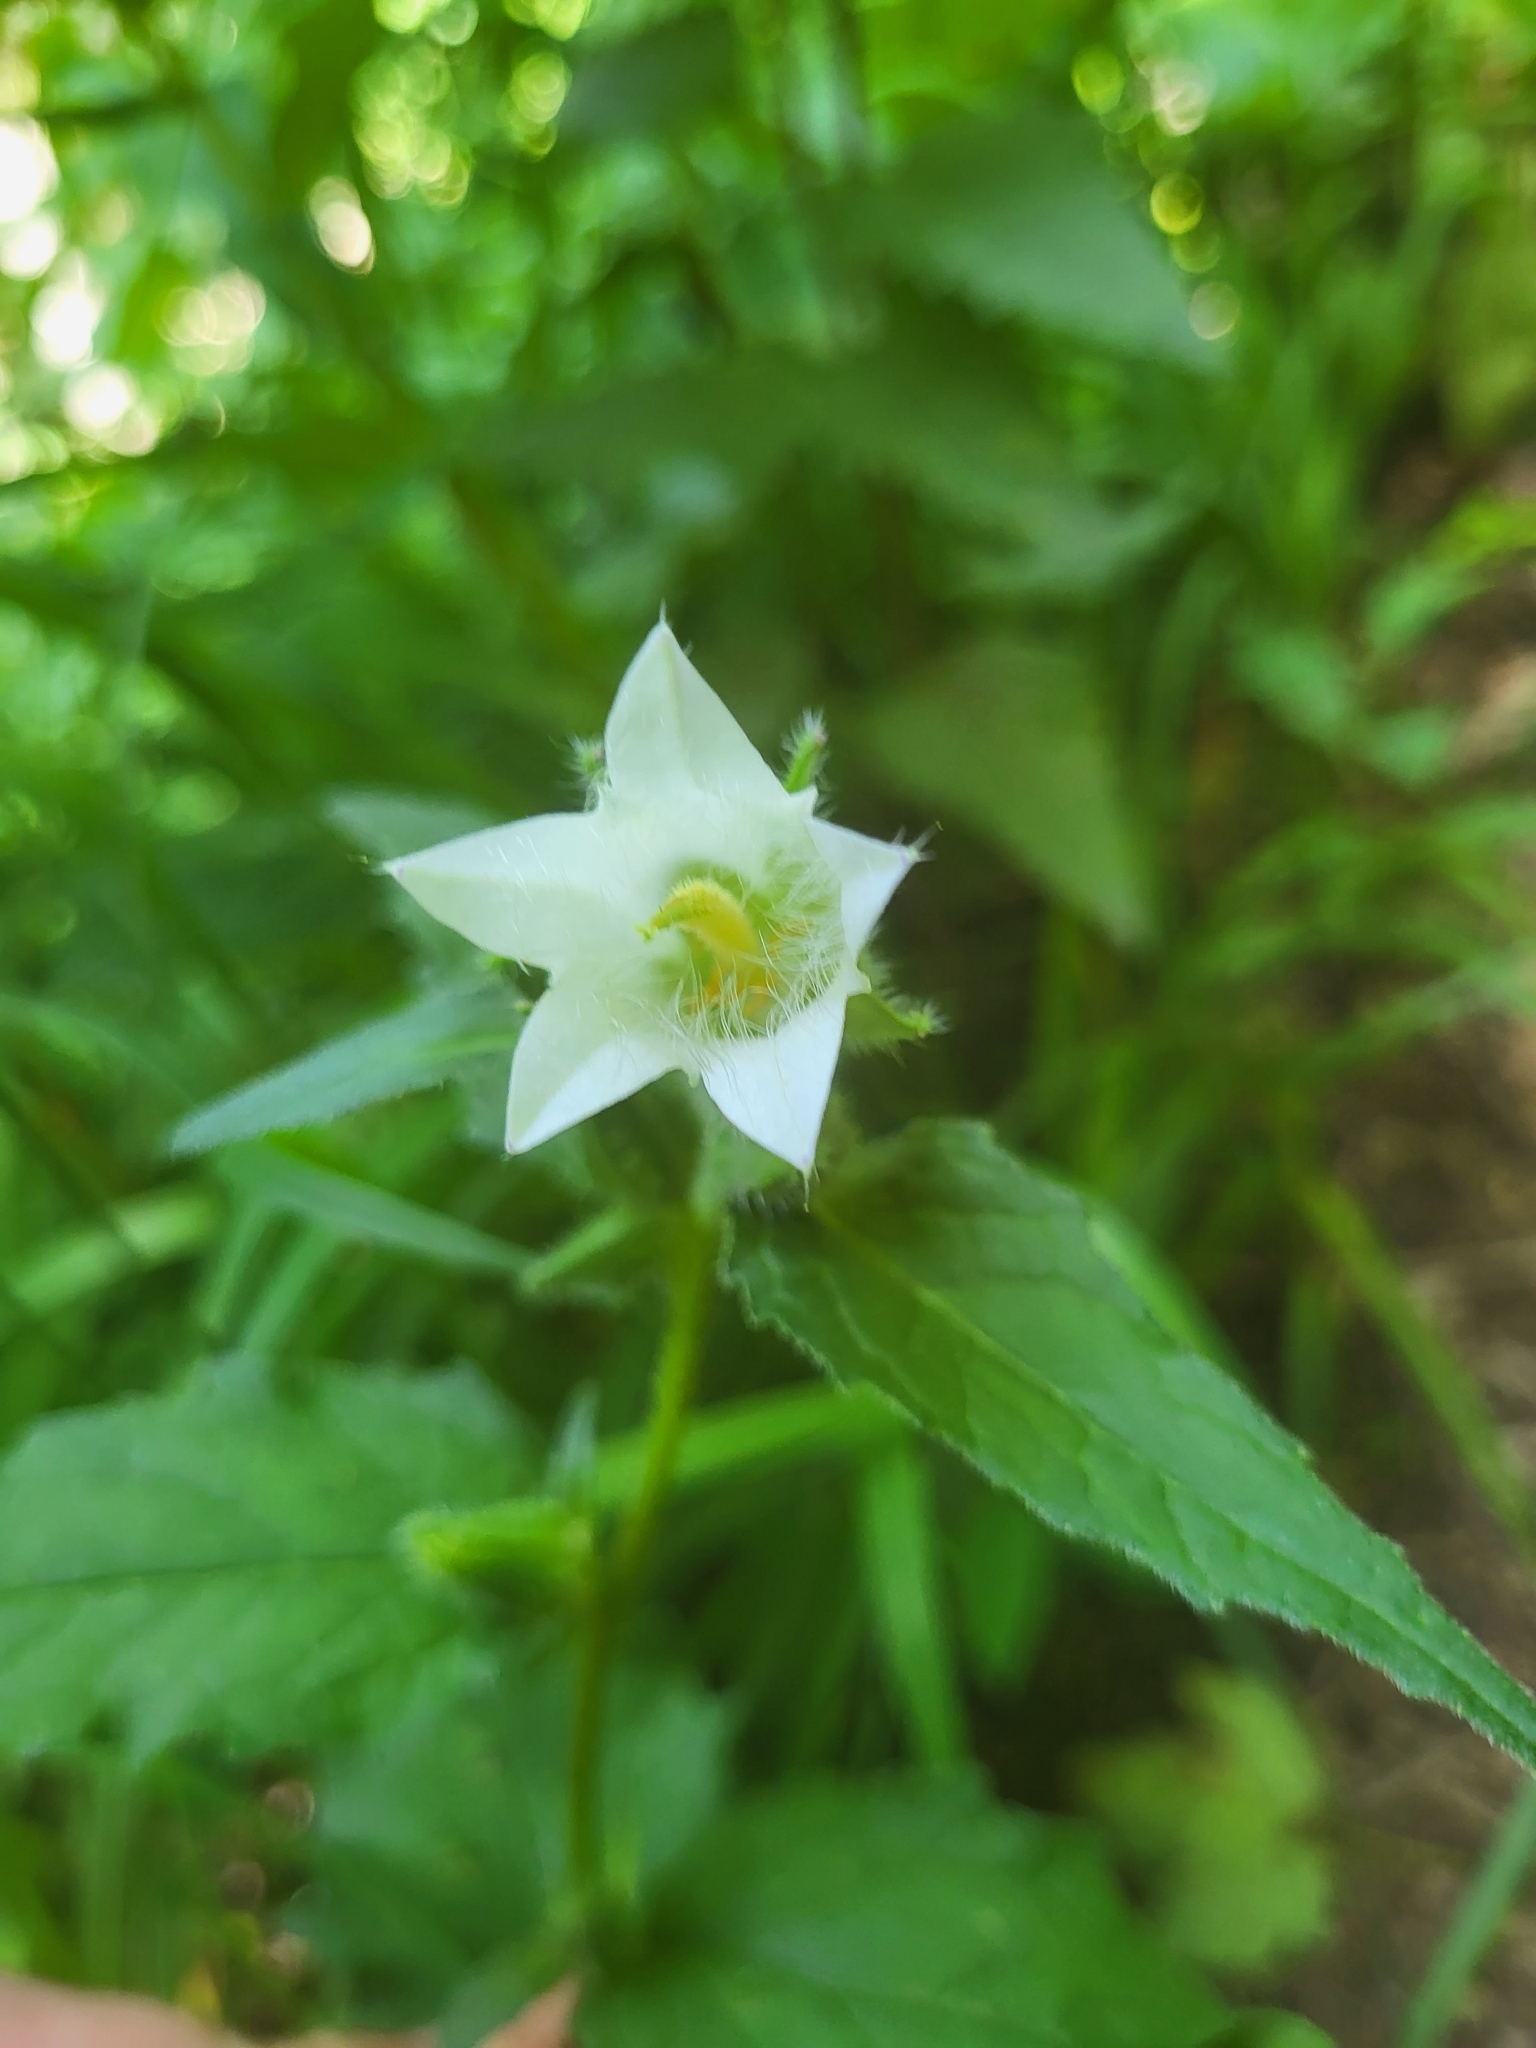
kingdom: Plantae
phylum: Tracheophyta
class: Magnoliopsida
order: Asterales
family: Campanulaceae
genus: Campanula
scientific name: Campanula trachelium
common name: Nettle-leaved bellflower
